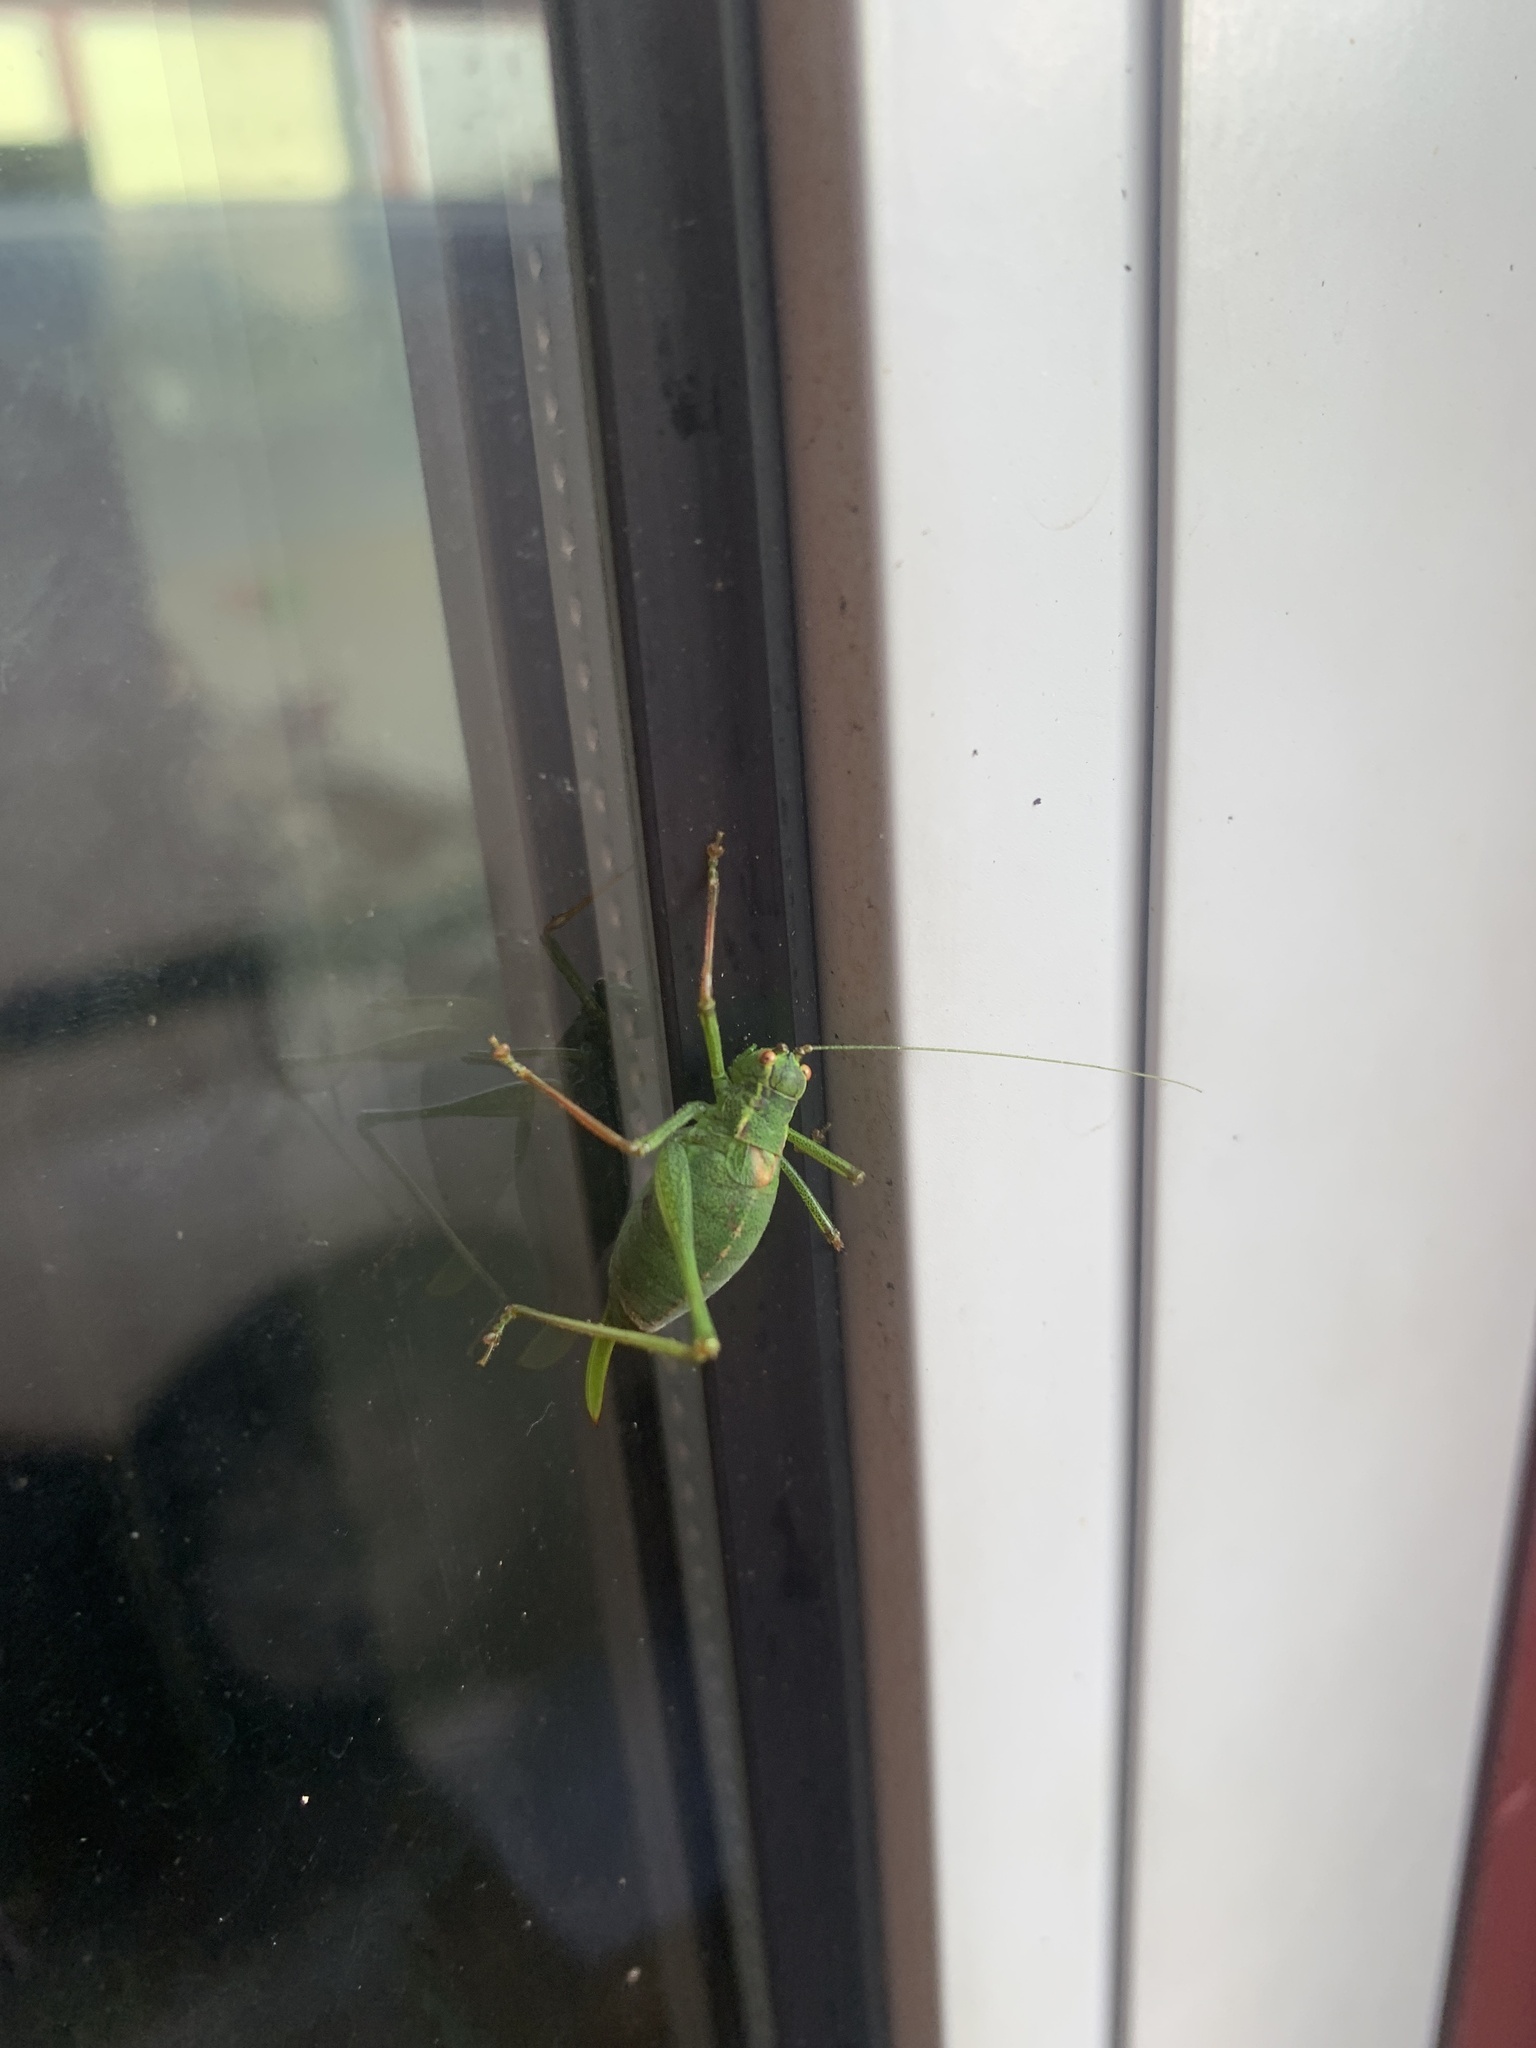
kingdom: Animalia
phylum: Arthropoda
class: Insecta
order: Orthoptera
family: Tettigoniidae
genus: Leptophyes
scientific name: Leptophyes punctatissima
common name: Speckled bush-cricket
